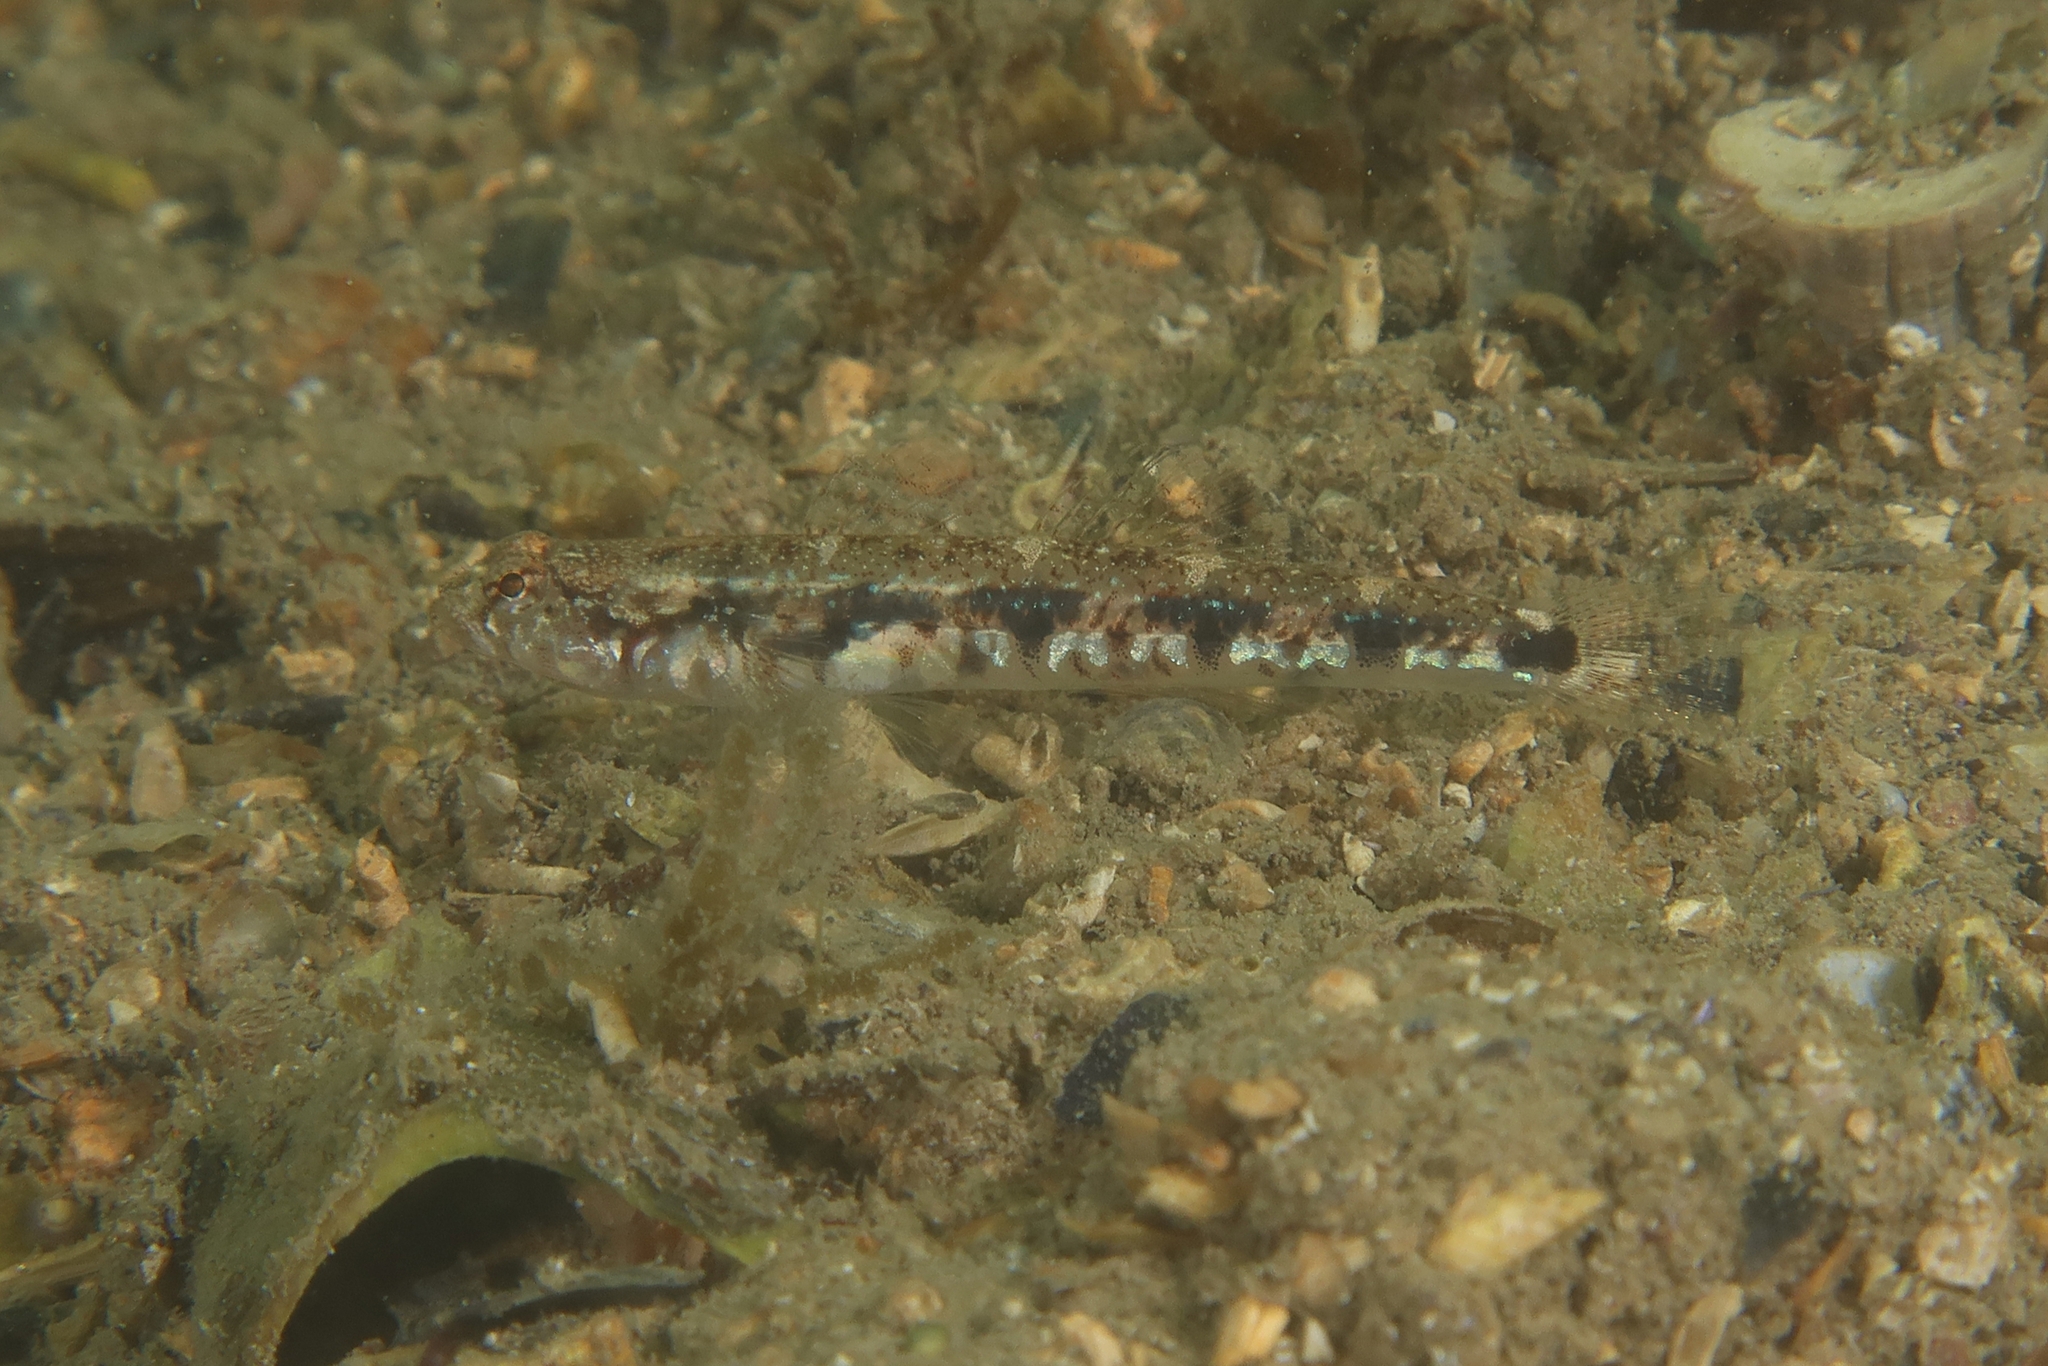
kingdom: Animalia
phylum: Chordata
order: Perciformes
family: Gobiidae
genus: Pomatoschistus
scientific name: Pomatoschistus bathi
